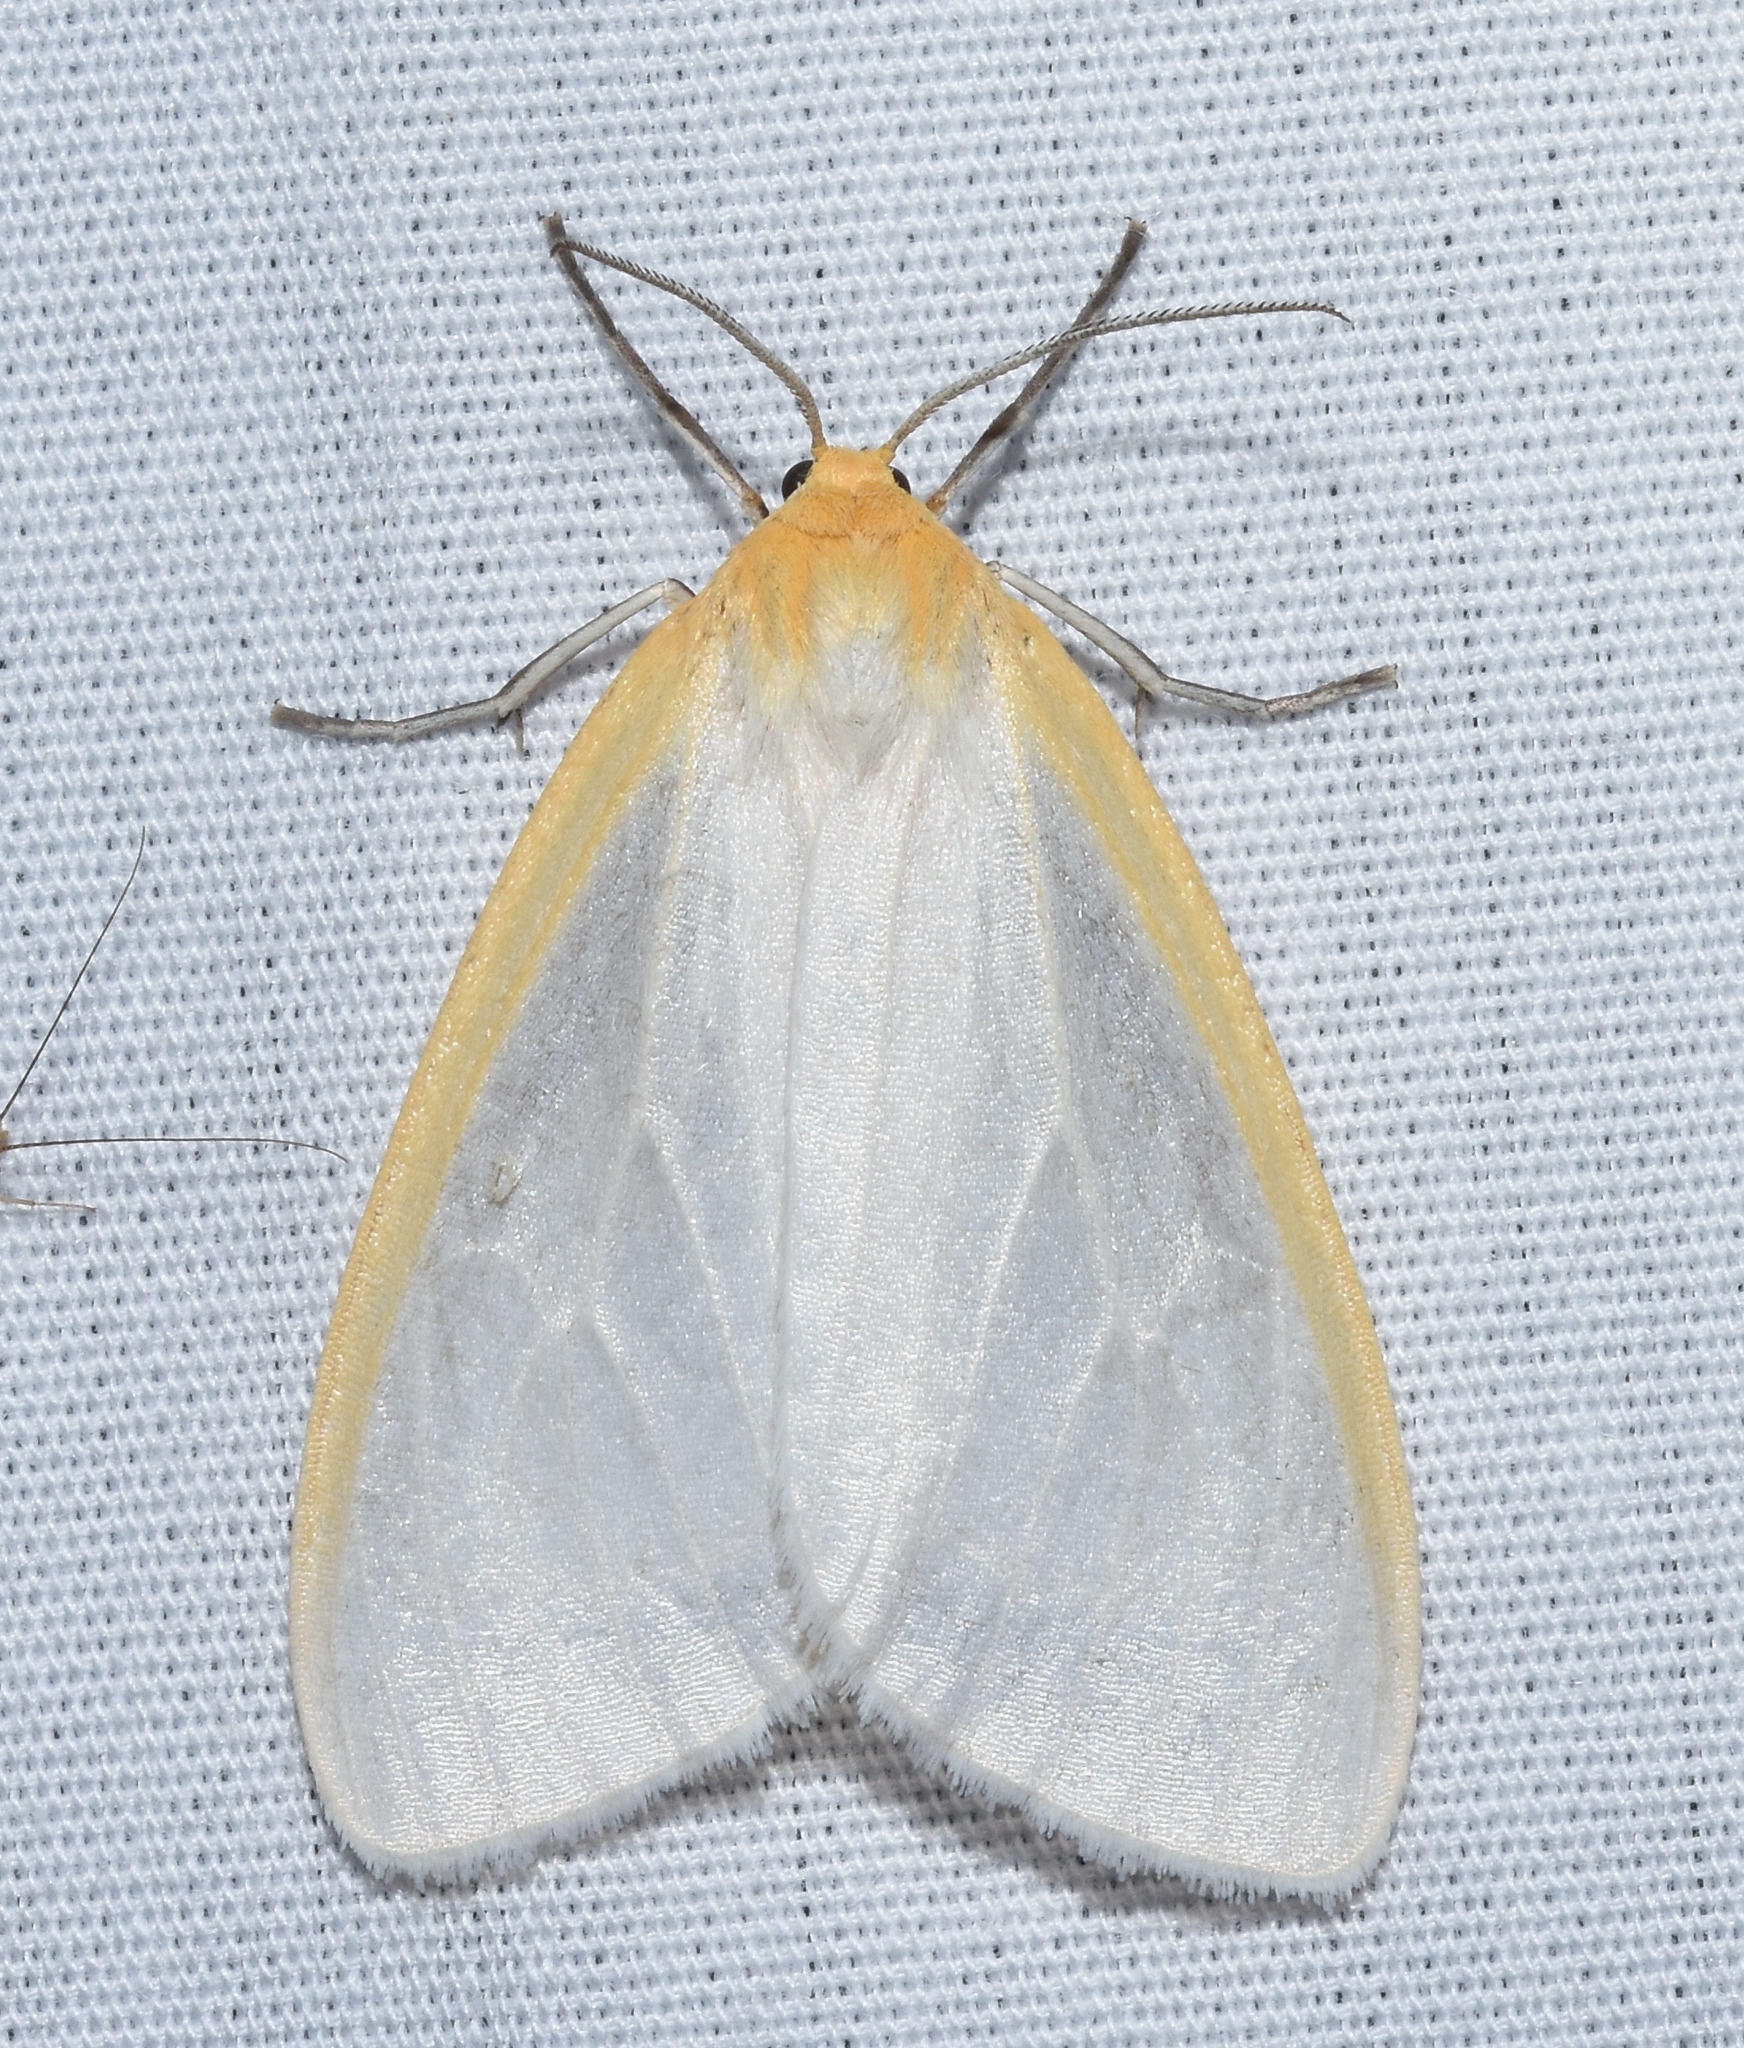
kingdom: Animalia
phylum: Arthropoda
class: Insecta
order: Lepidoptera
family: Erebidae
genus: Cycnia
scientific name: Cycnia tenera
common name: Delicate cycnia moth
